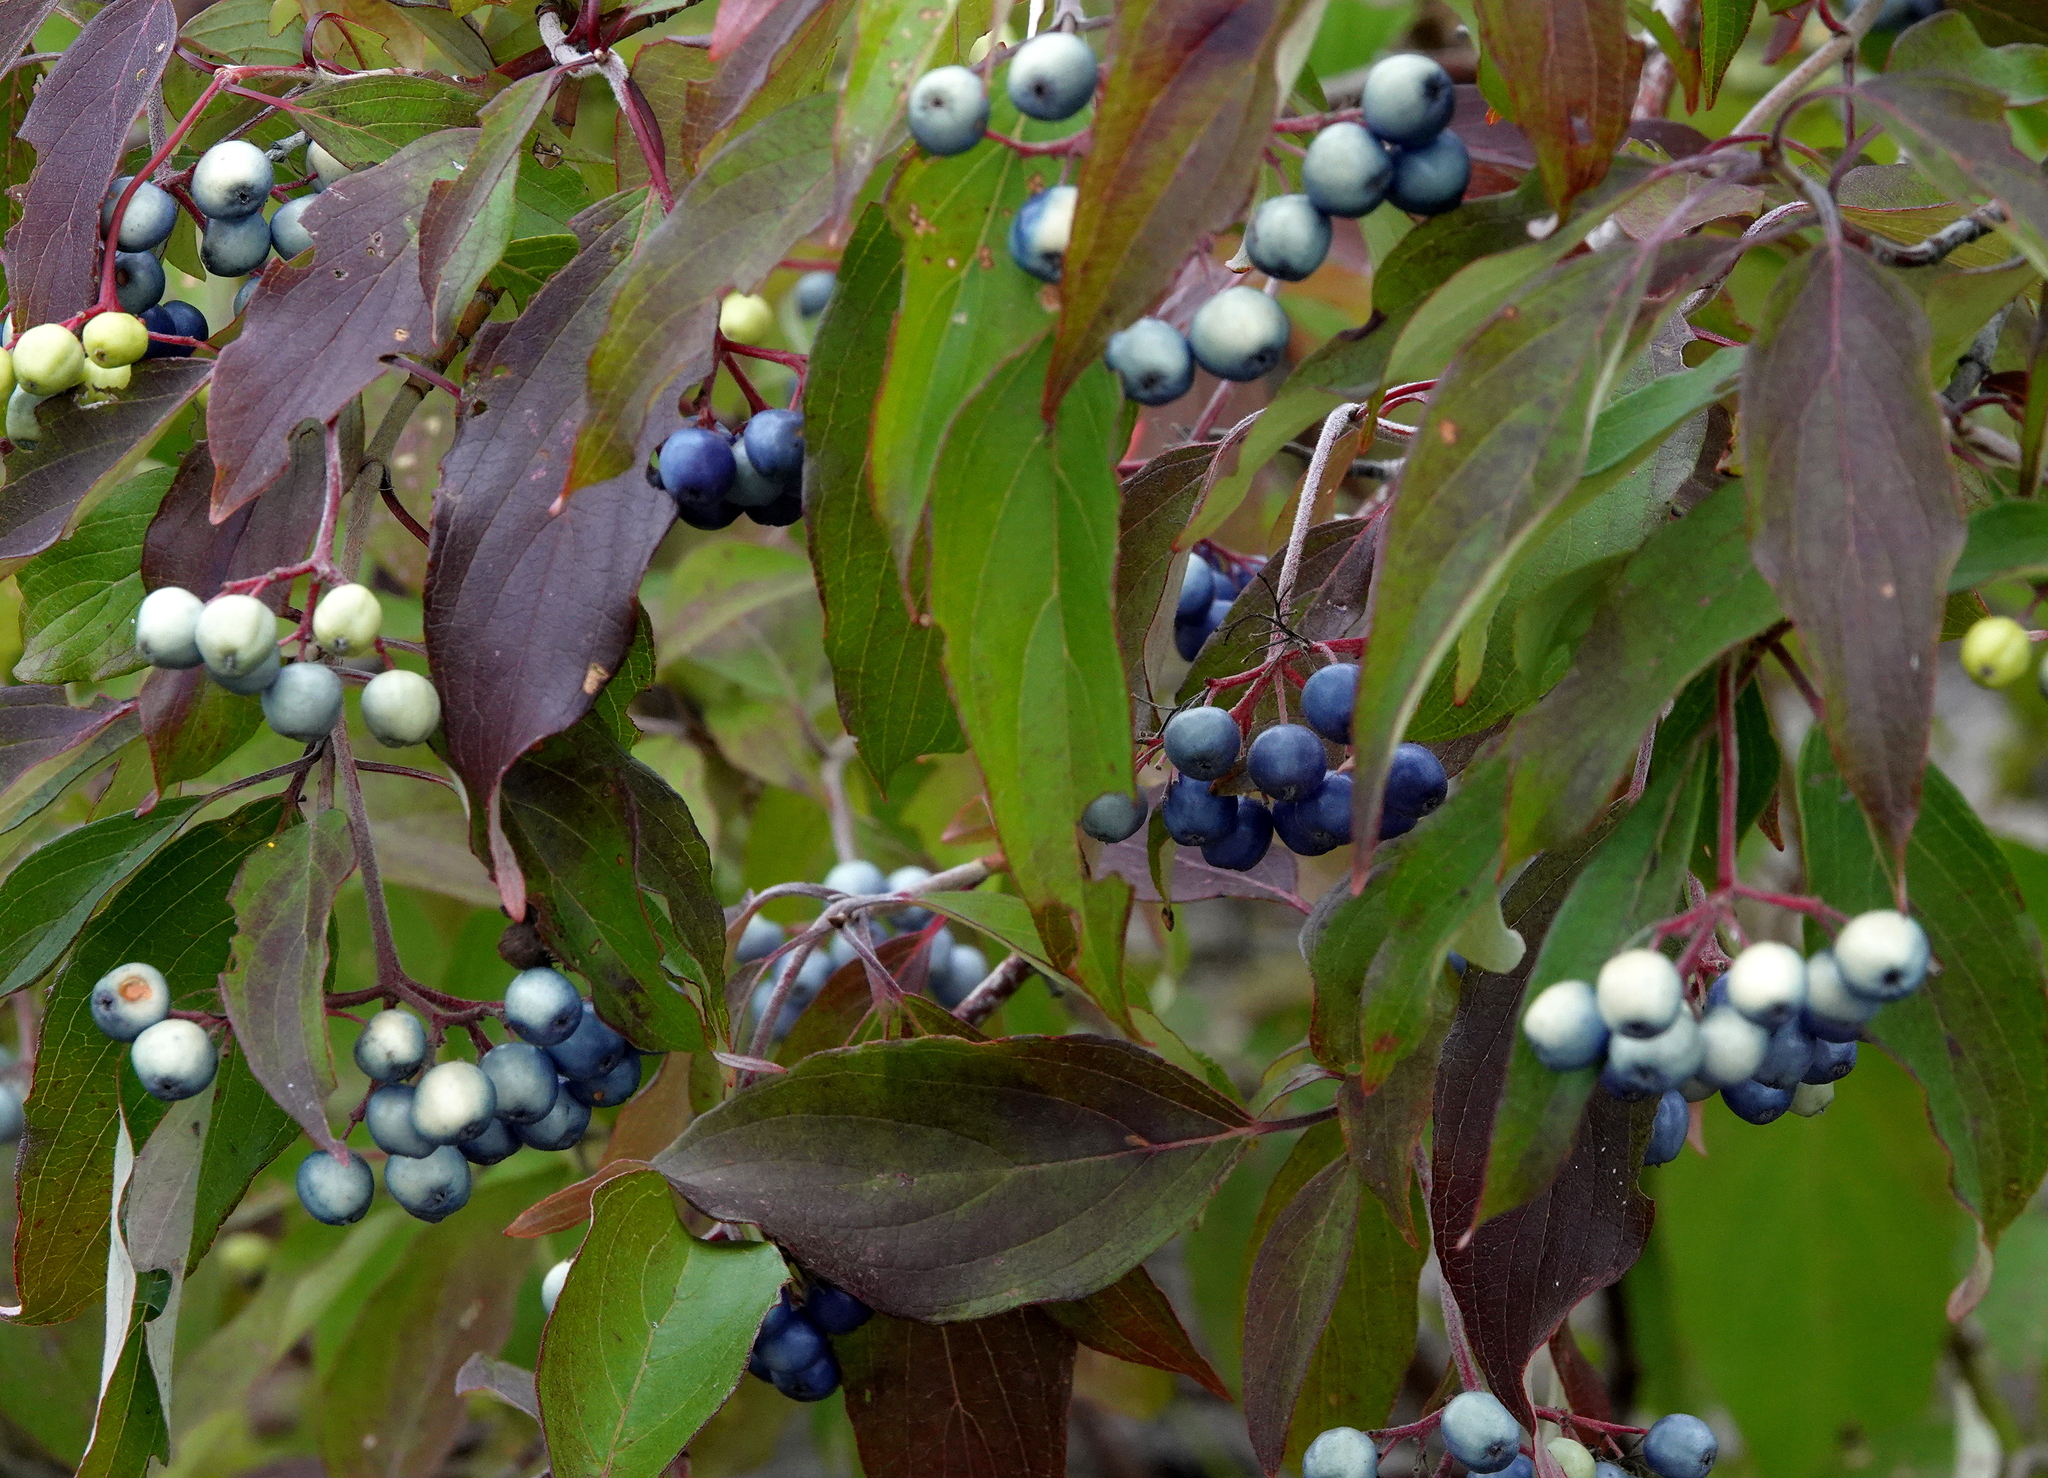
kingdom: Plantae
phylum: Tracheophyta
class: Magnoliopsida
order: Cornales
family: Cornaceae
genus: Cornus
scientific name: Cornus obliqua
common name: Pale dogwood
